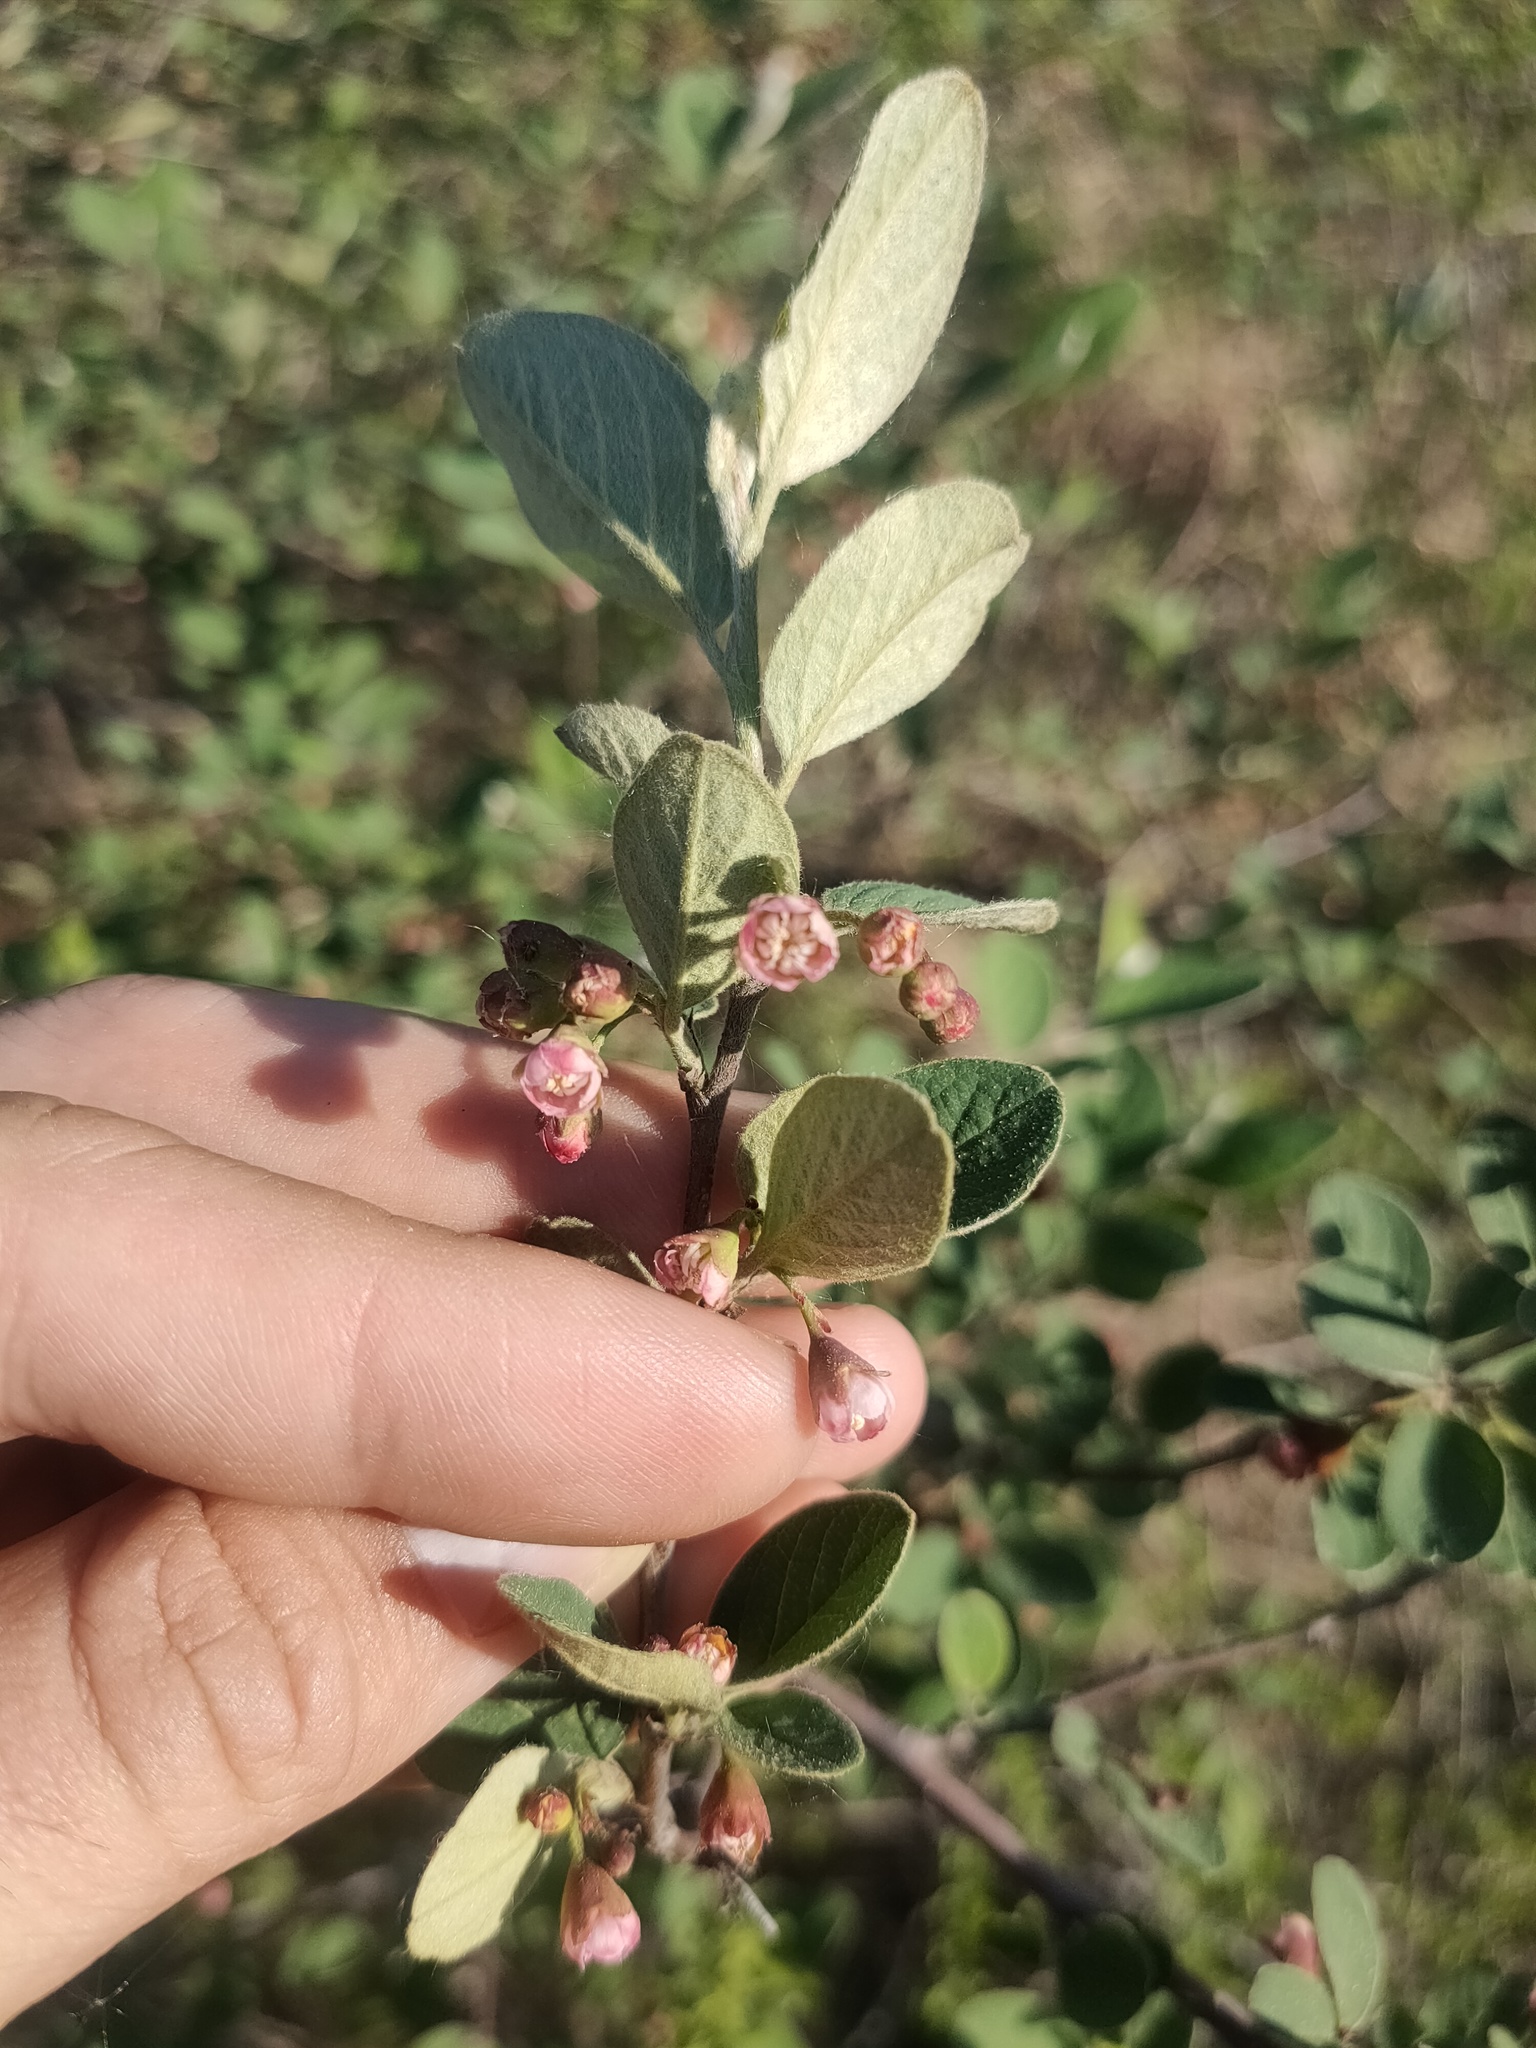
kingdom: Plantae
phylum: Tracheophyta
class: Magnoliopsida
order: Rosales
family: Rosaceae
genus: Cotoneaster
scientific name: Cotoneaster melanocarpus
